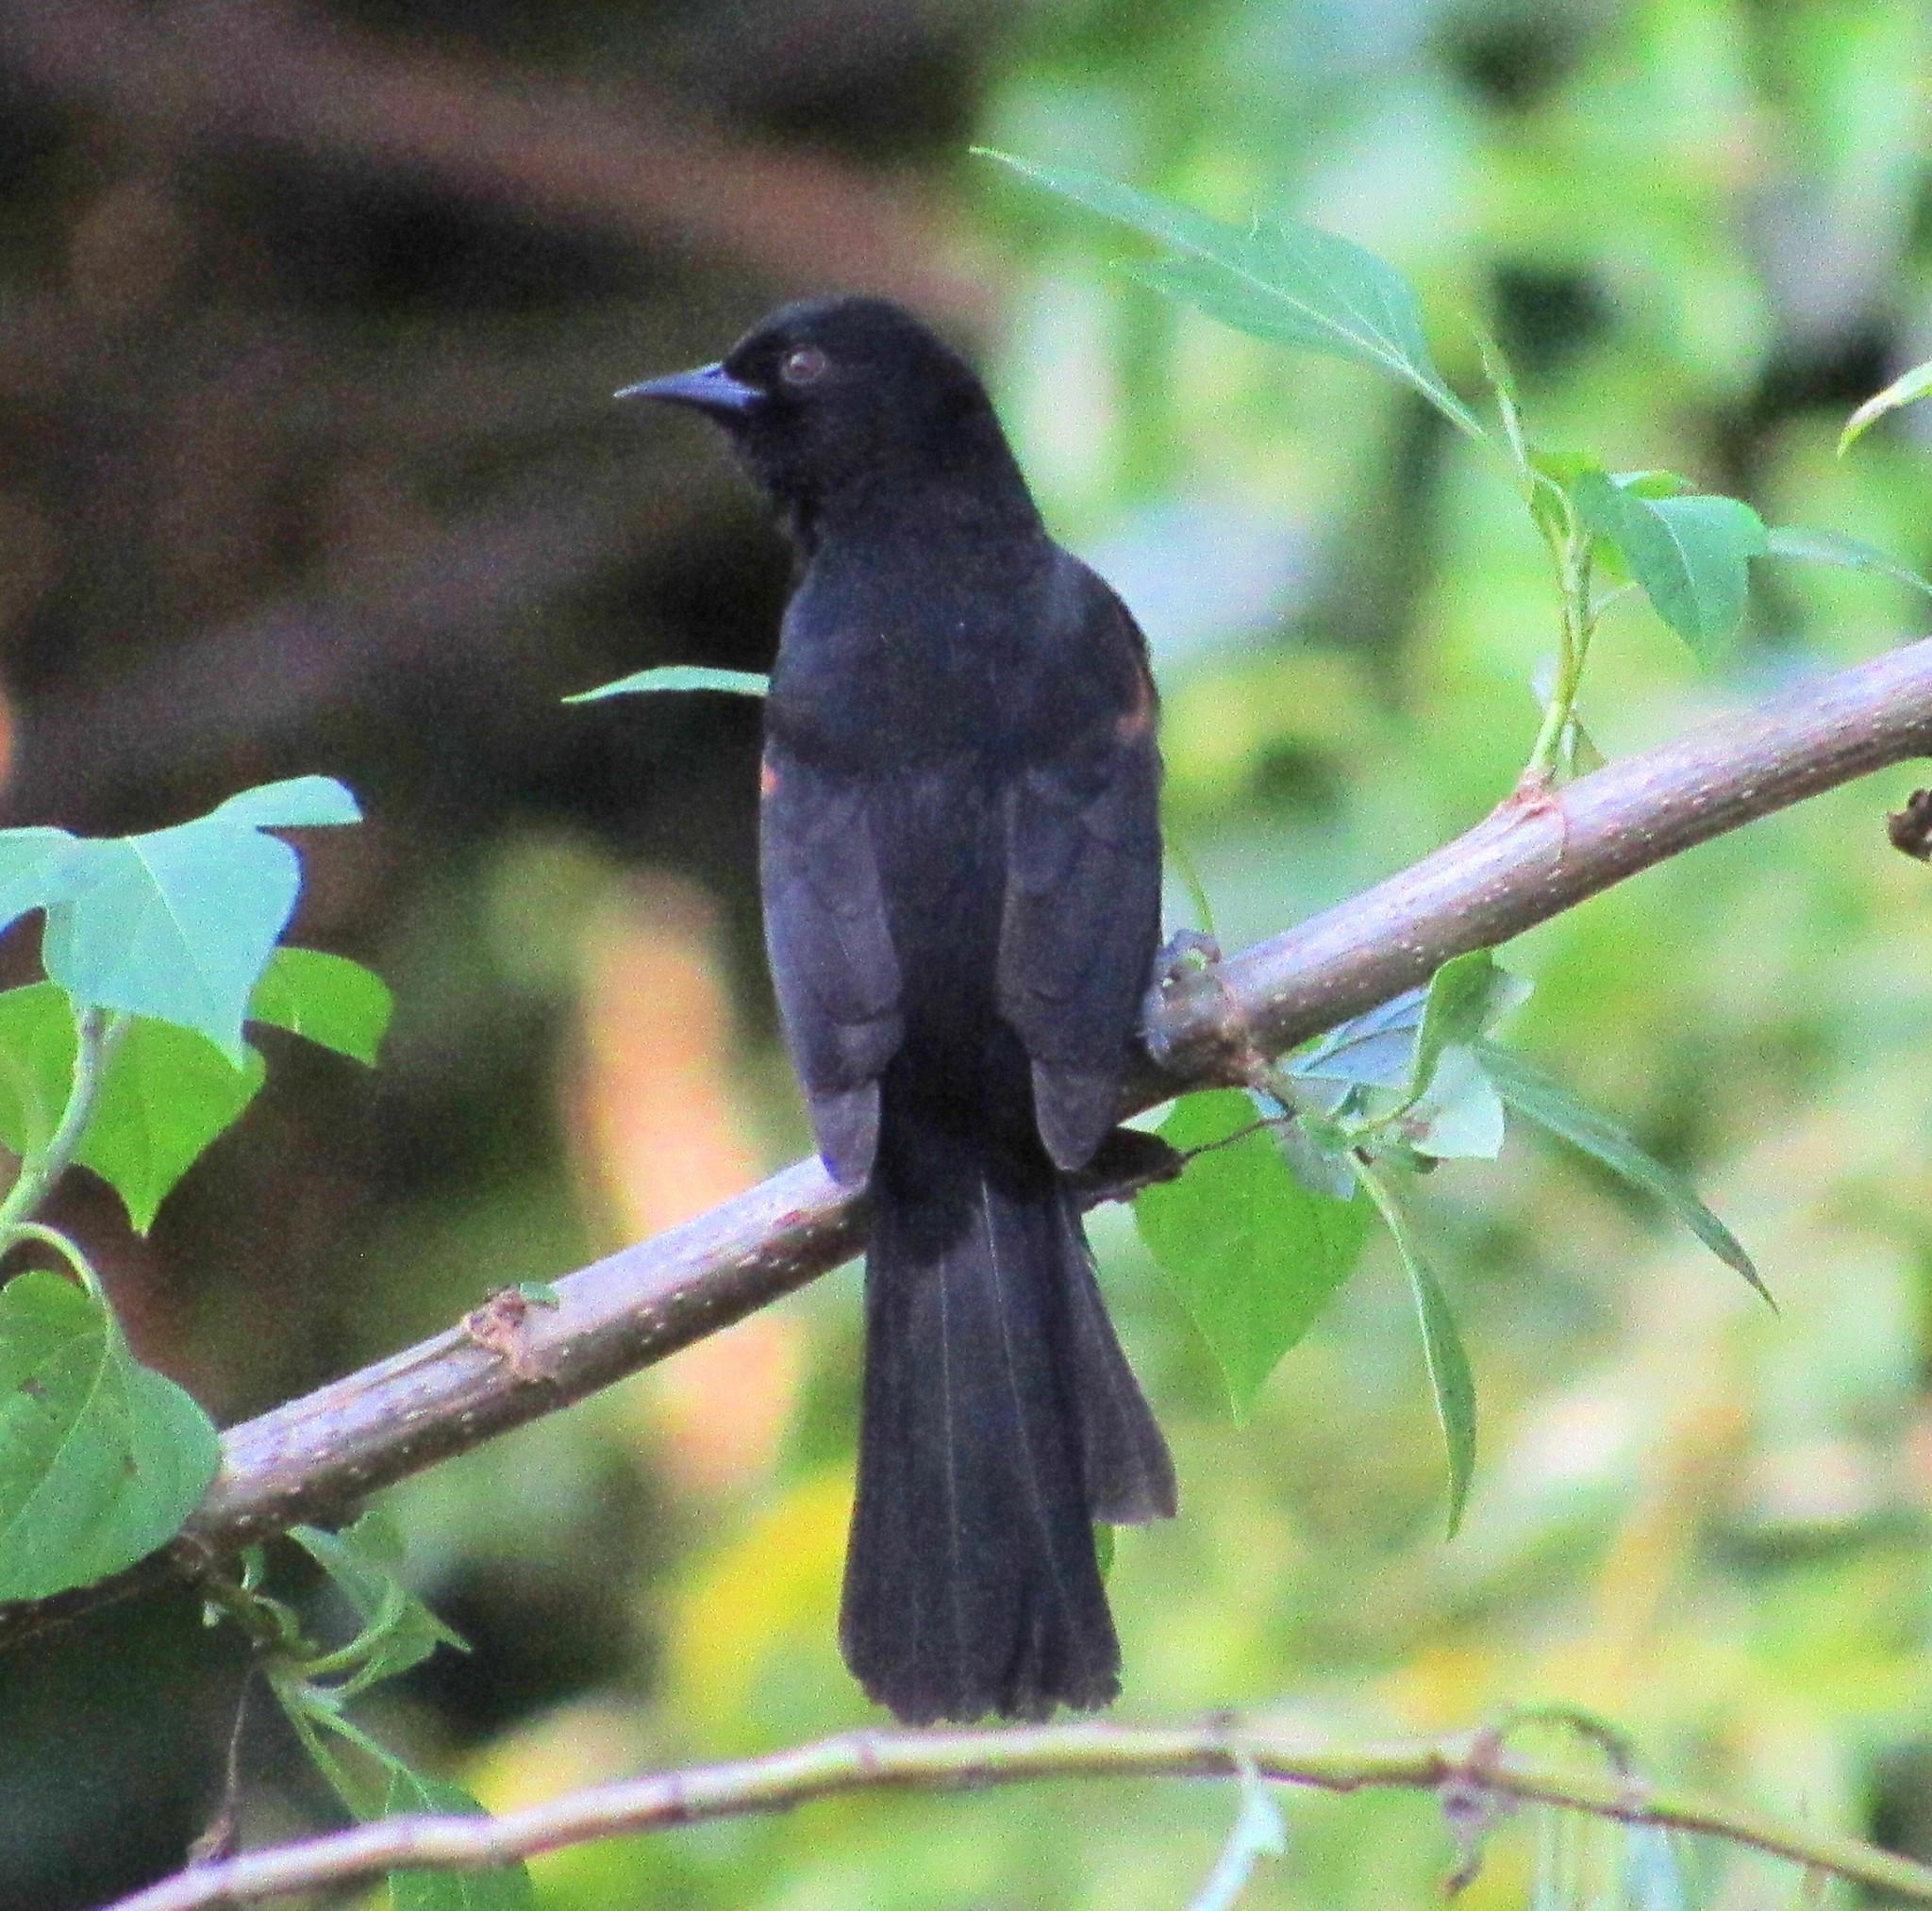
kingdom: Animalia
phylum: Chordata
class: Aves
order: Passeriformes
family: Icteridae
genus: Icterus
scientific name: Icterus cayanensis
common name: Epaulet oriole
